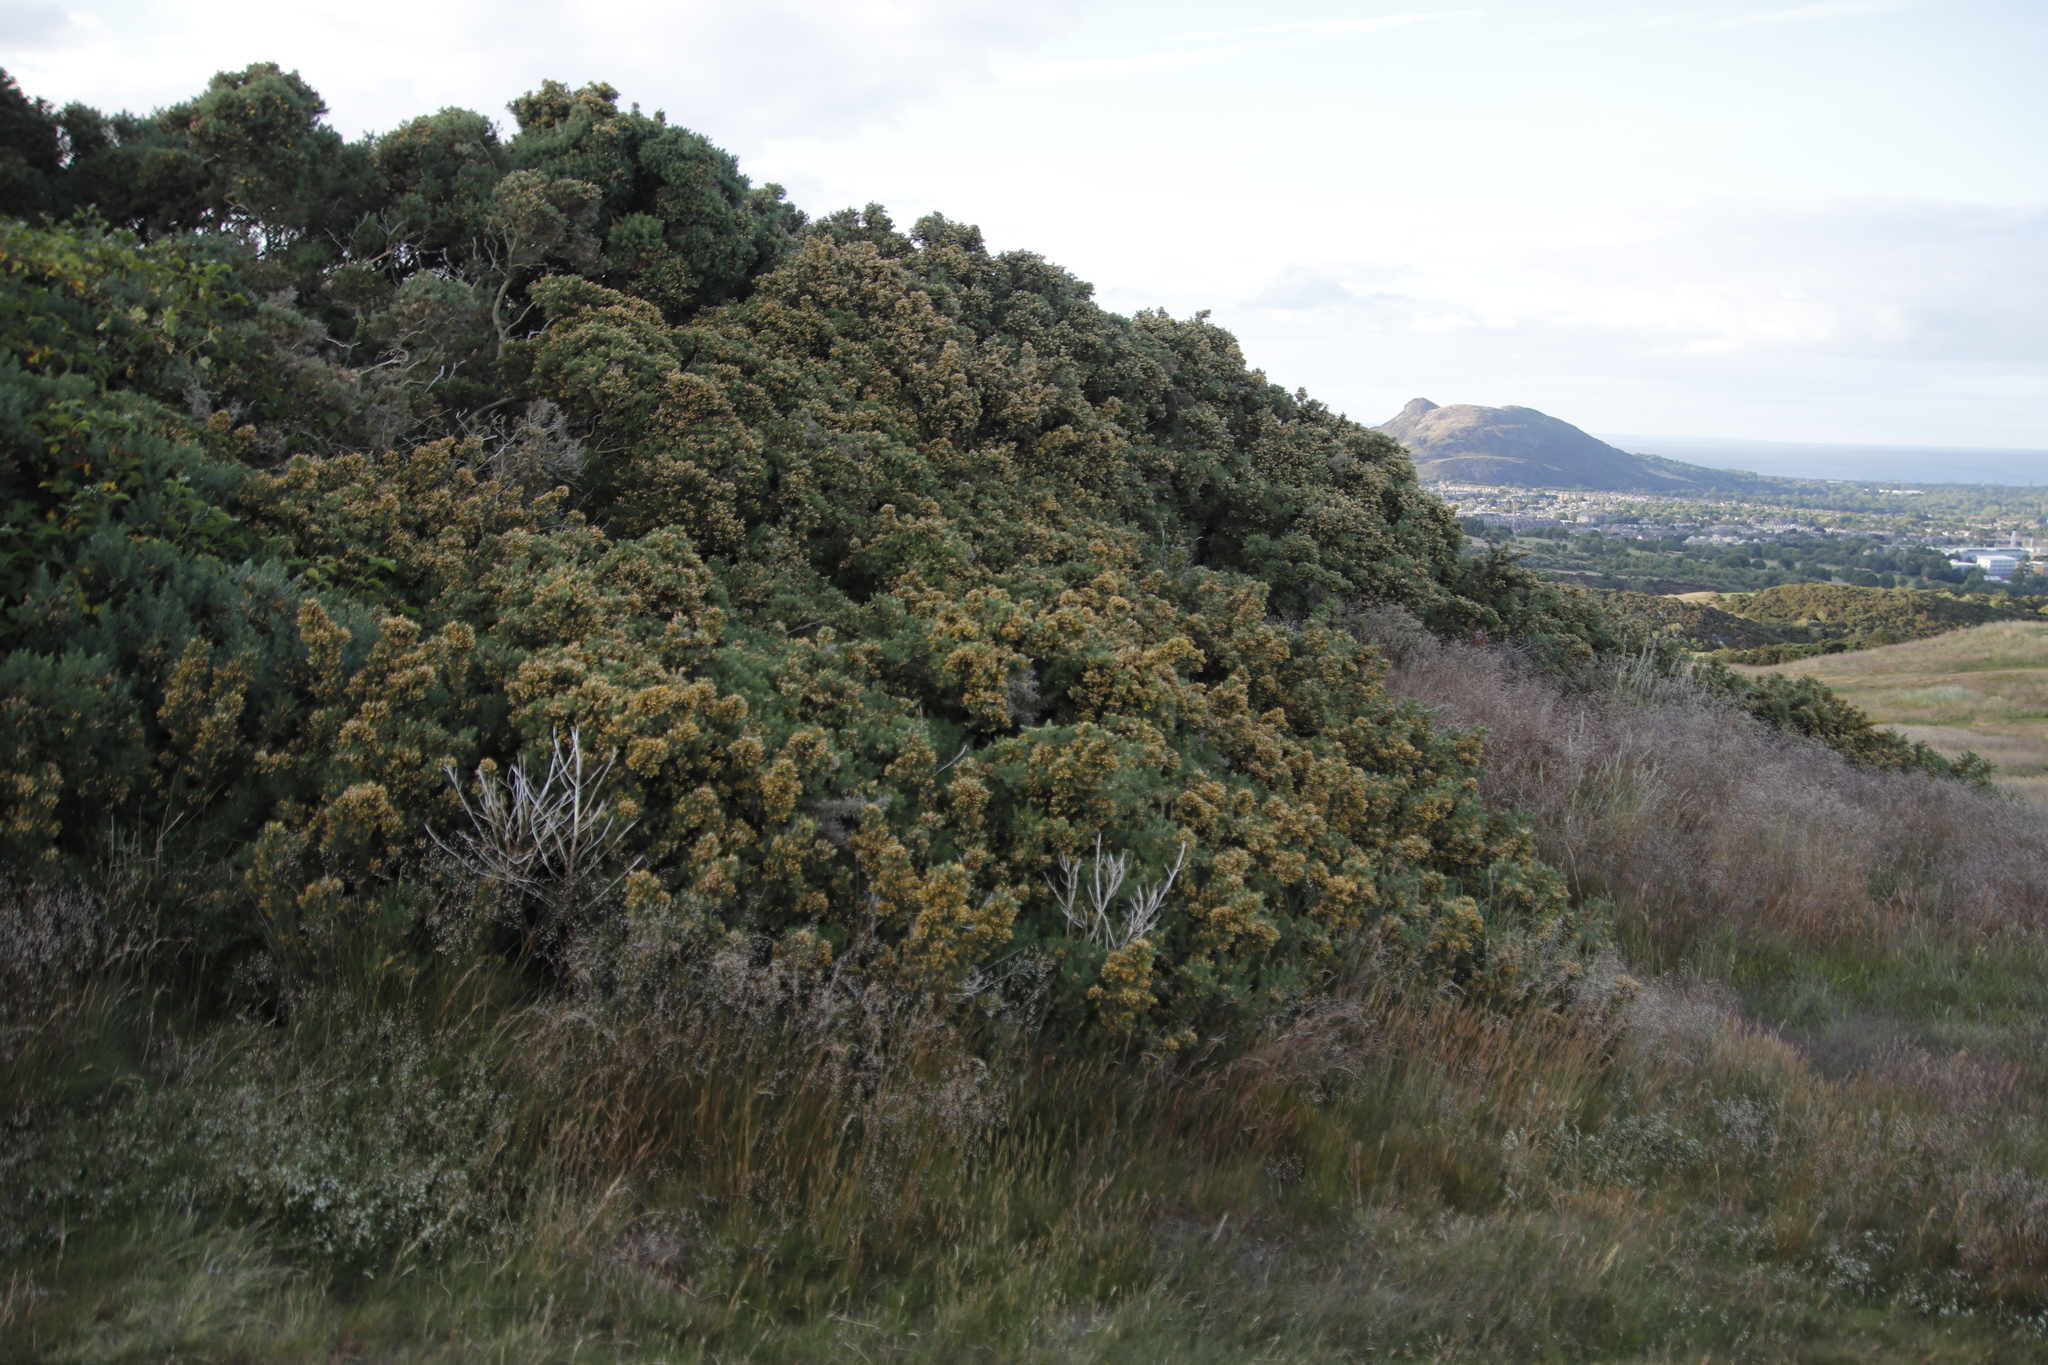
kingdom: Plantae
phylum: Tracheophyta
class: Magnoliopsida
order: Fabales
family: Fabaceae
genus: Ulex
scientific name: Ulex europaeus
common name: Common gorse
